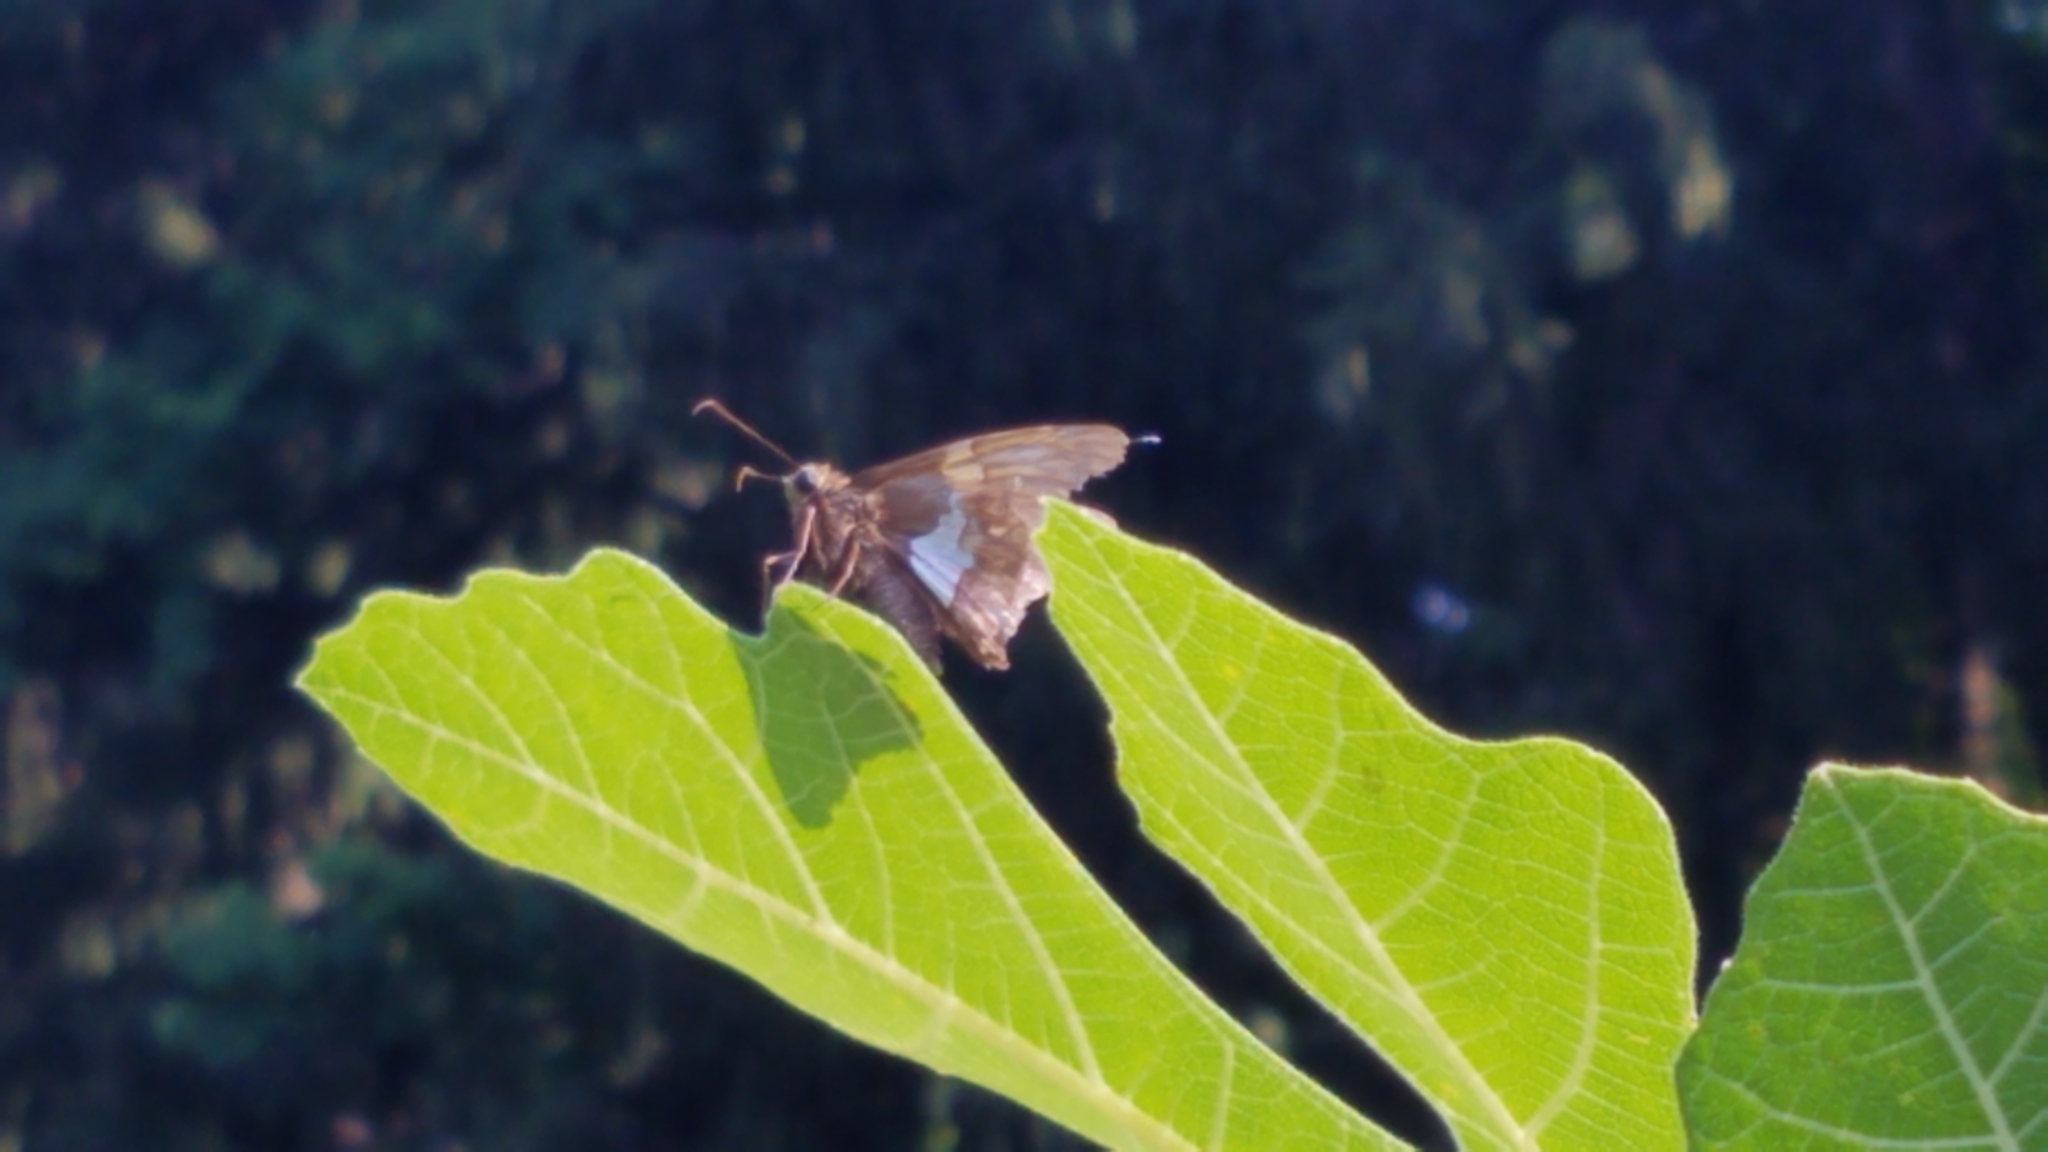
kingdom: Animalia
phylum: Arthropoda
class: Insecta
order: Lepidoptera
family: Hesperiidae
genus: Epargyreus
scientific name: Epargyreus clarus
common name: Silver-spotted skipper
